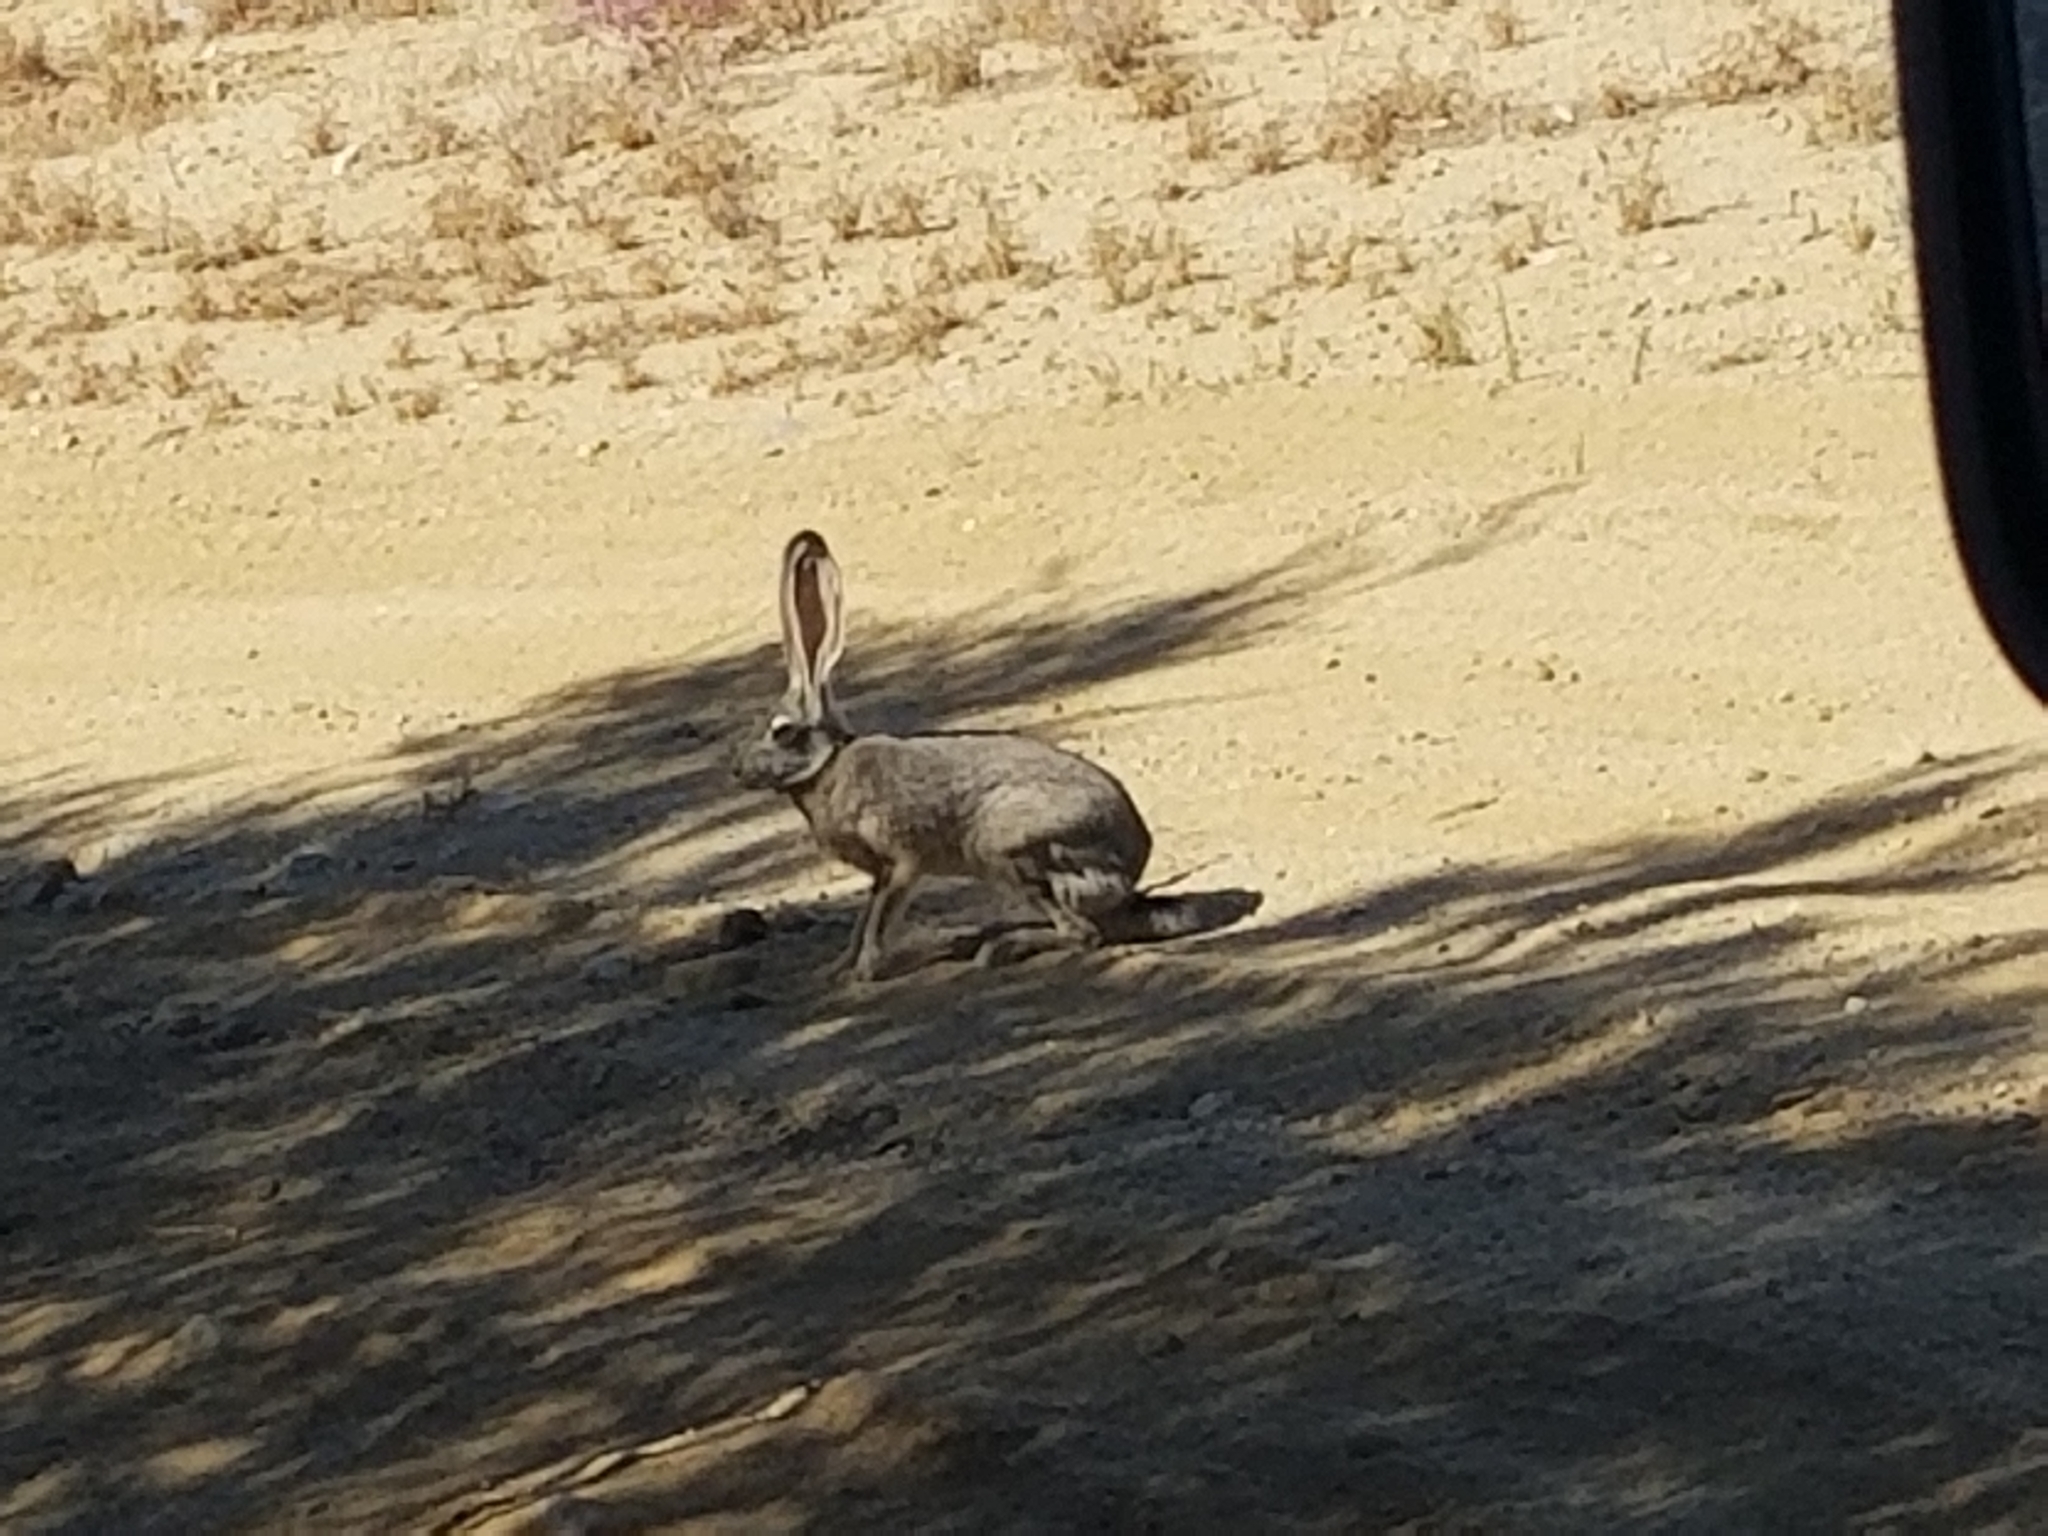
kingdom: Animalia
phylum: Chordata
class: Mammalia
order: Lagomorpha
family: Leporidae
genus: Lepus
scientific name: Lepus californicus
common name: Black-tailed jackrabbit
